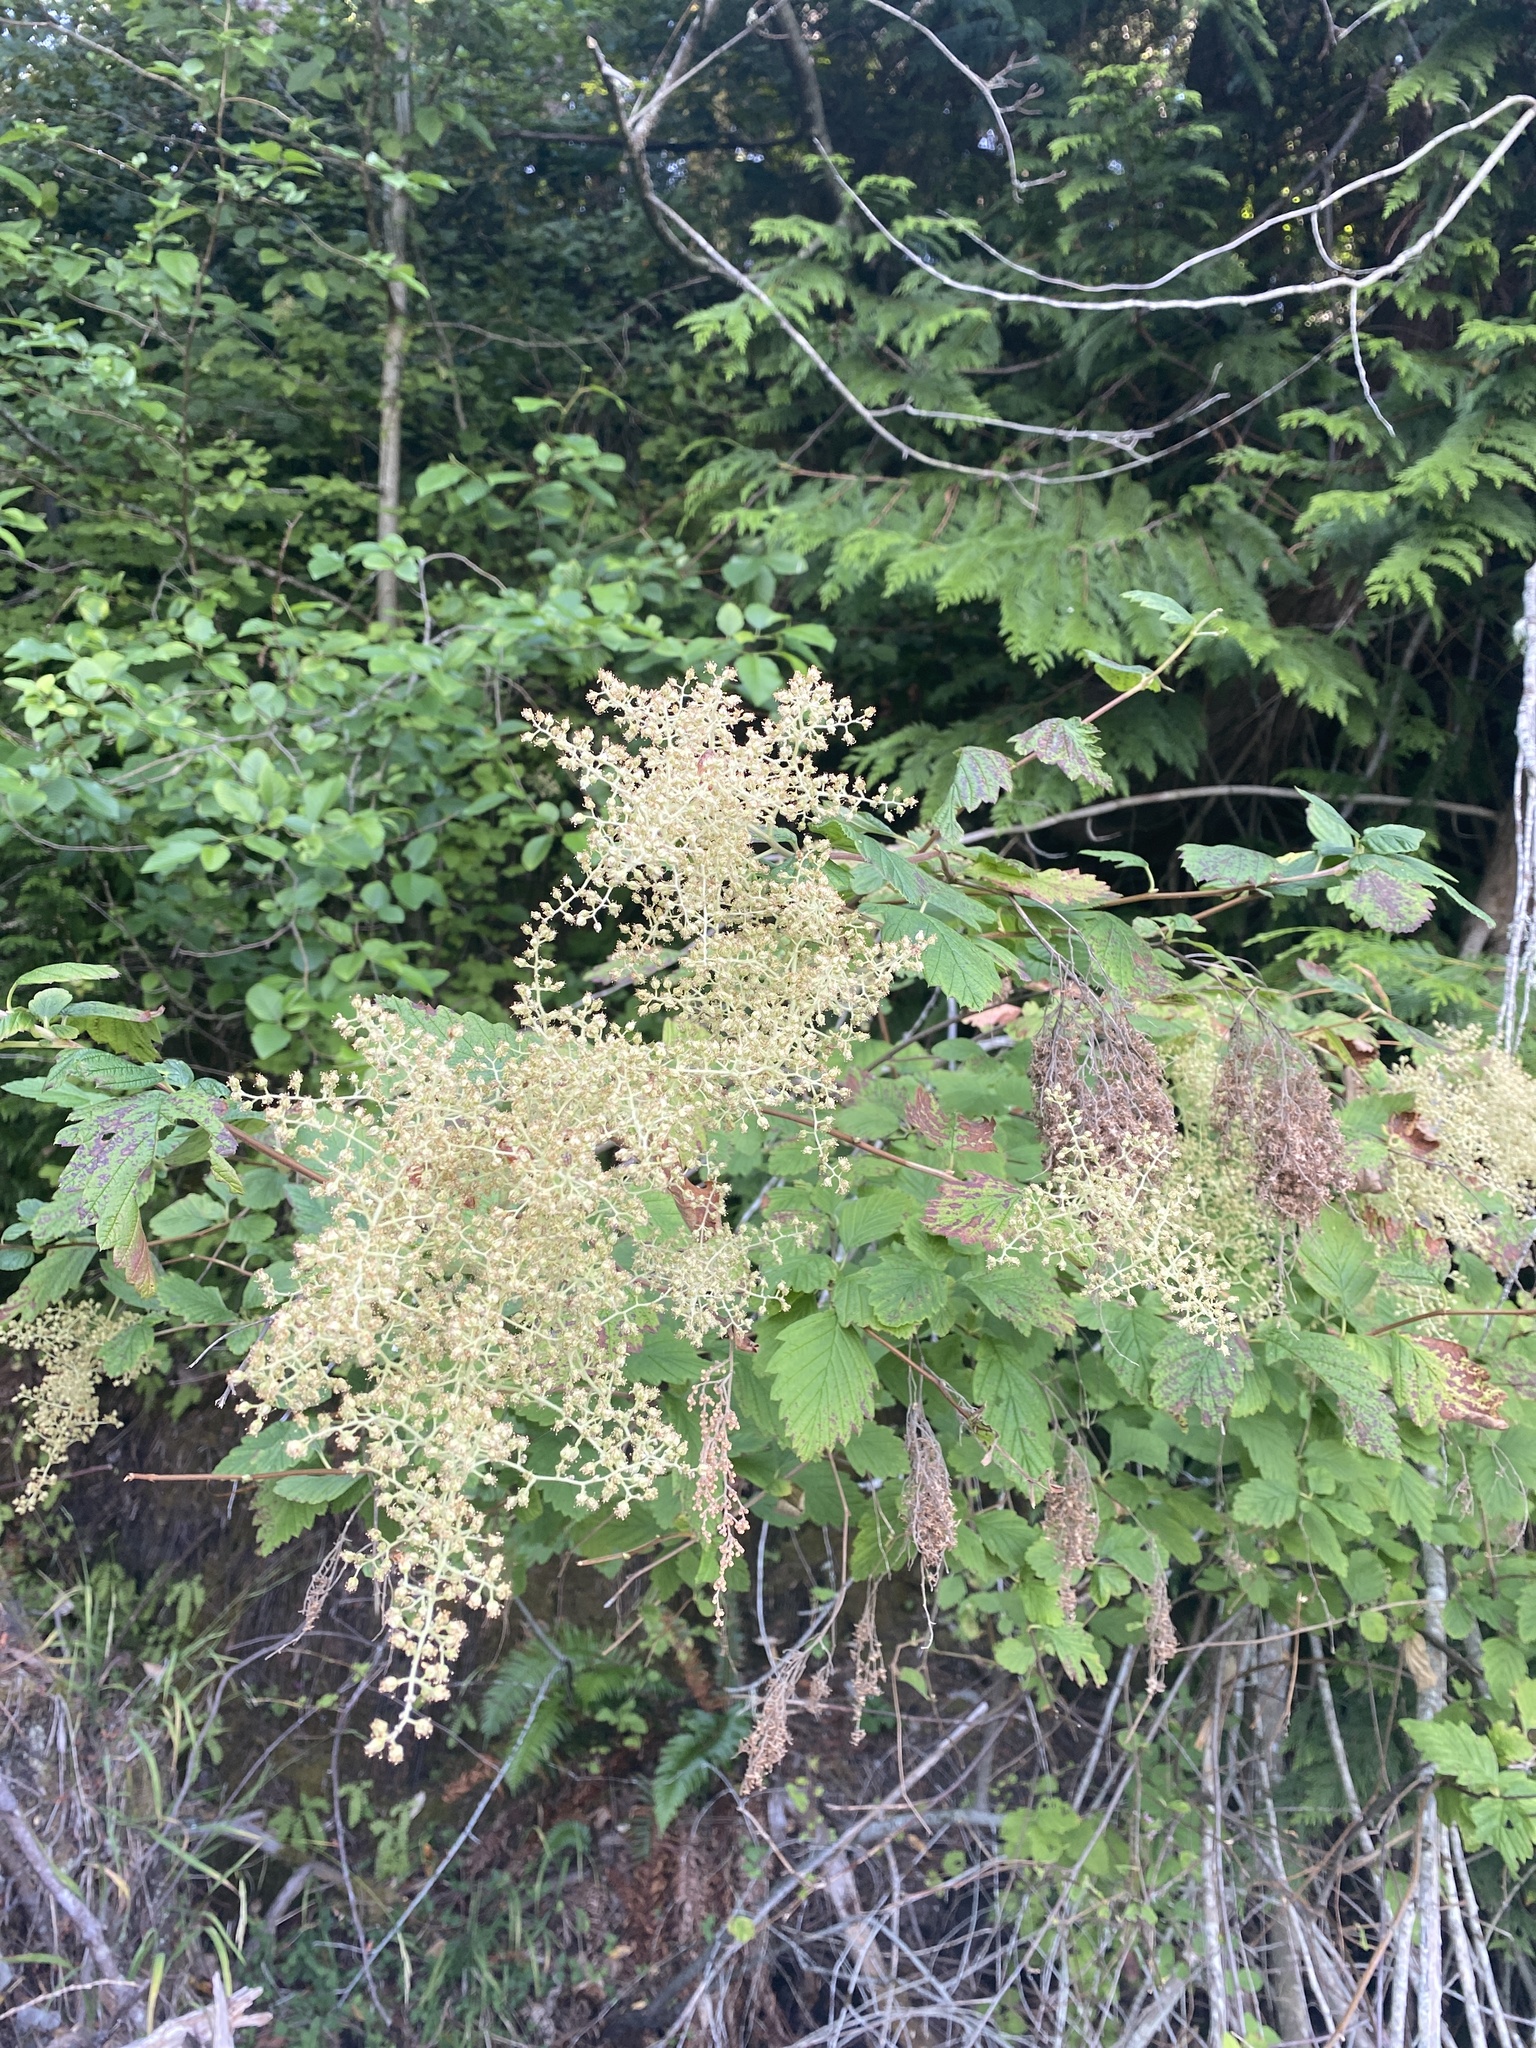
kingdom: Plantae
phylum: Tracheophyta
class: Magnoliopsida
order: Rosales
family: Rosaceae
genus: Holodiscus
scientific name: Holodiscus discolor
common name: Oceanspray
